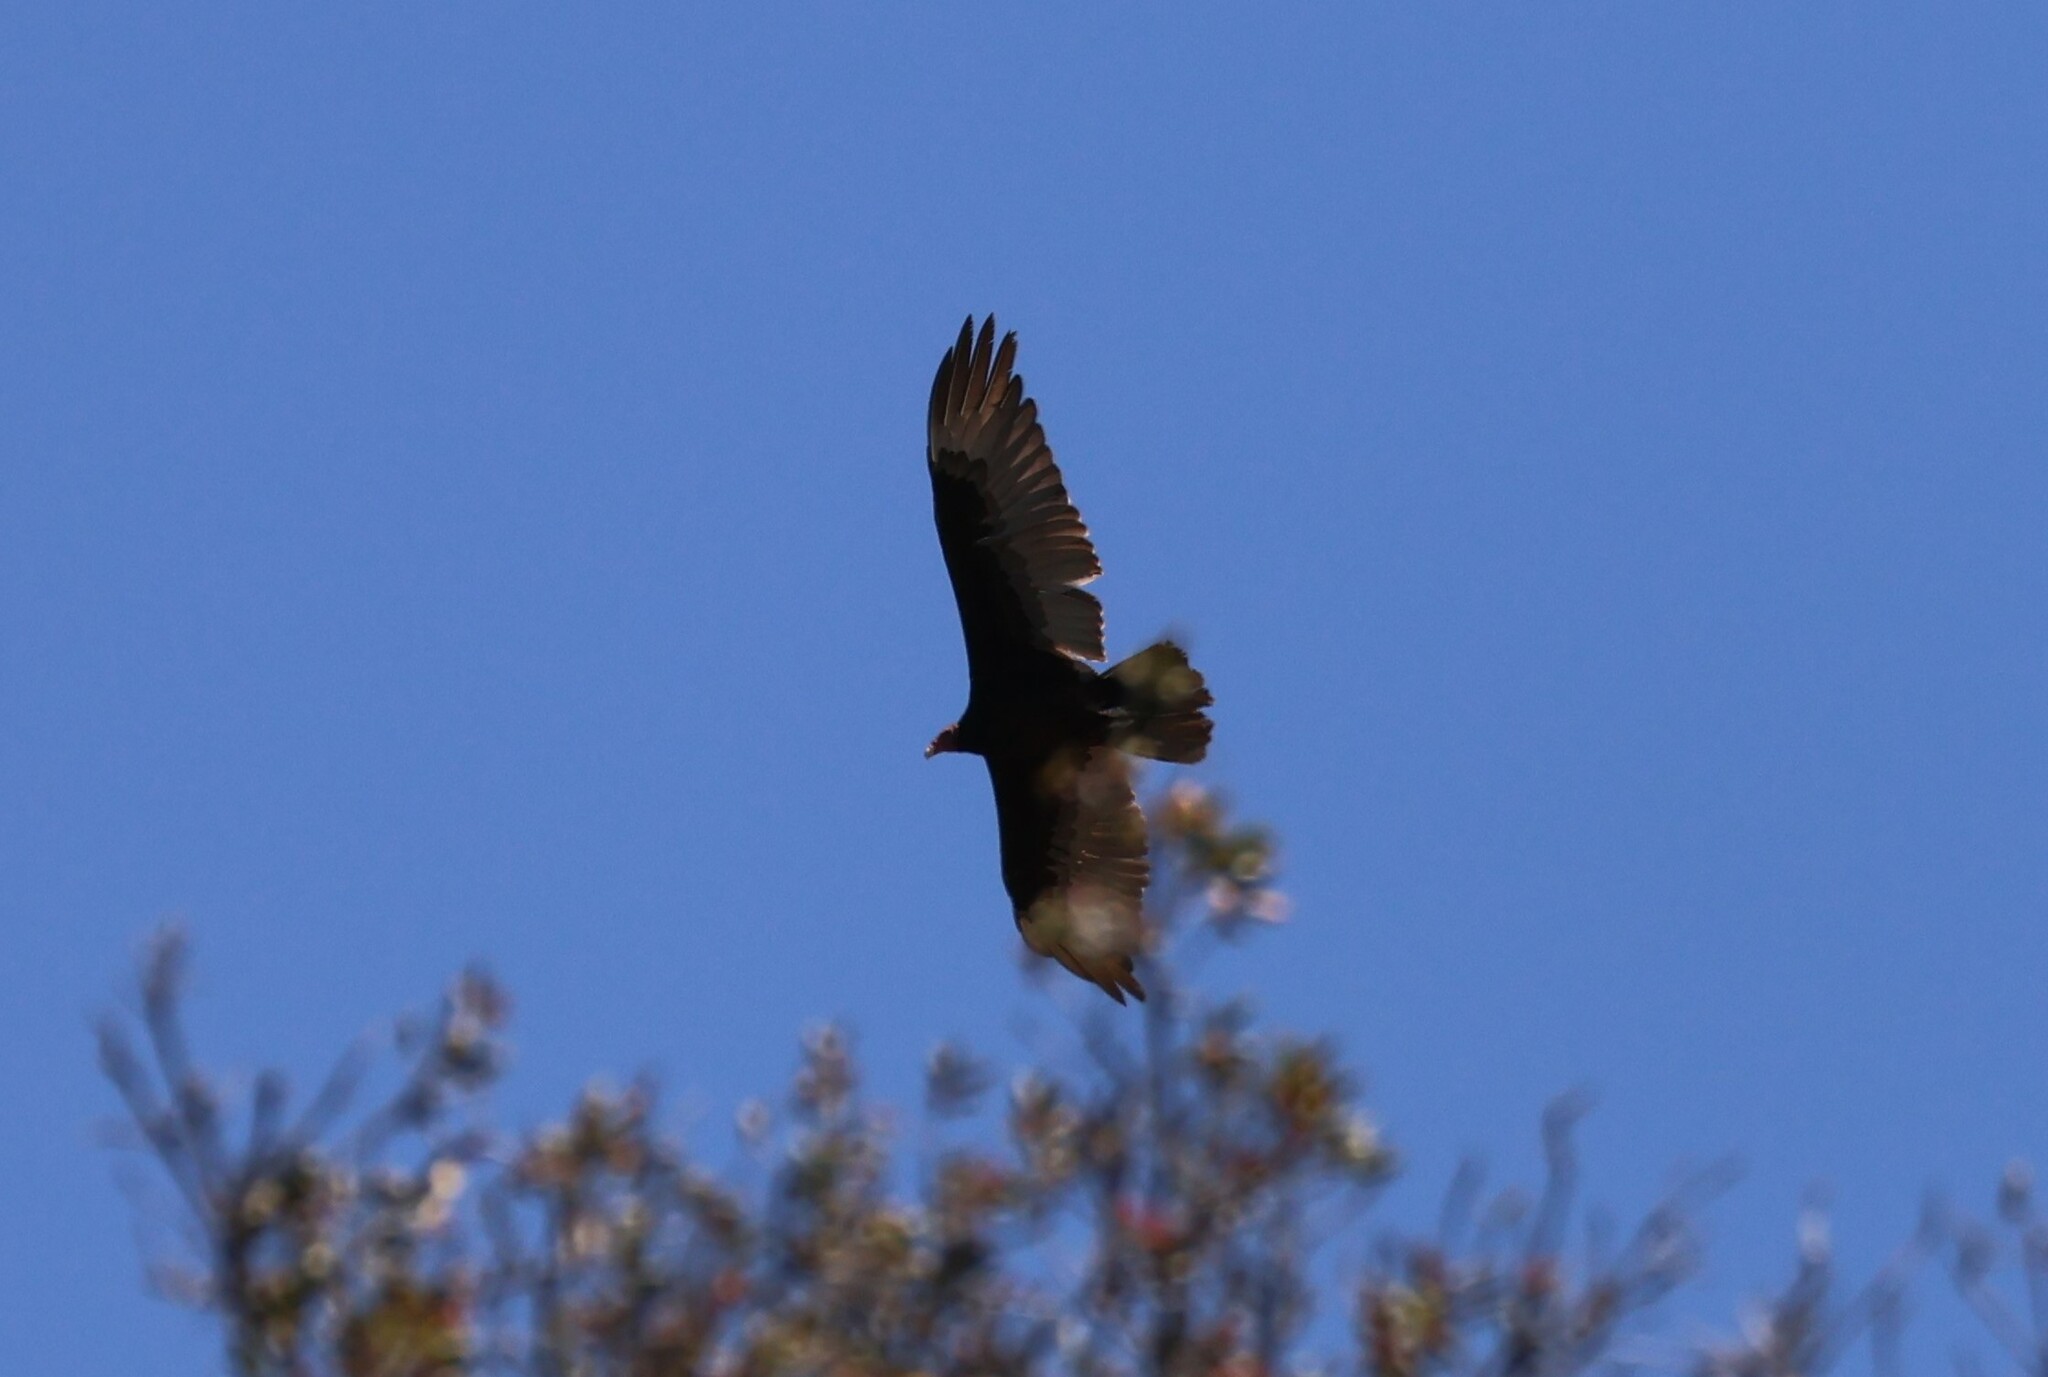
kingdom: Animalia
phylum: Chordata
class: Aves
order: Accipitriformes
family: Cathartidae
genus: Cathartes
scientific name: Cathartes aura
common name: Turkey vulture
